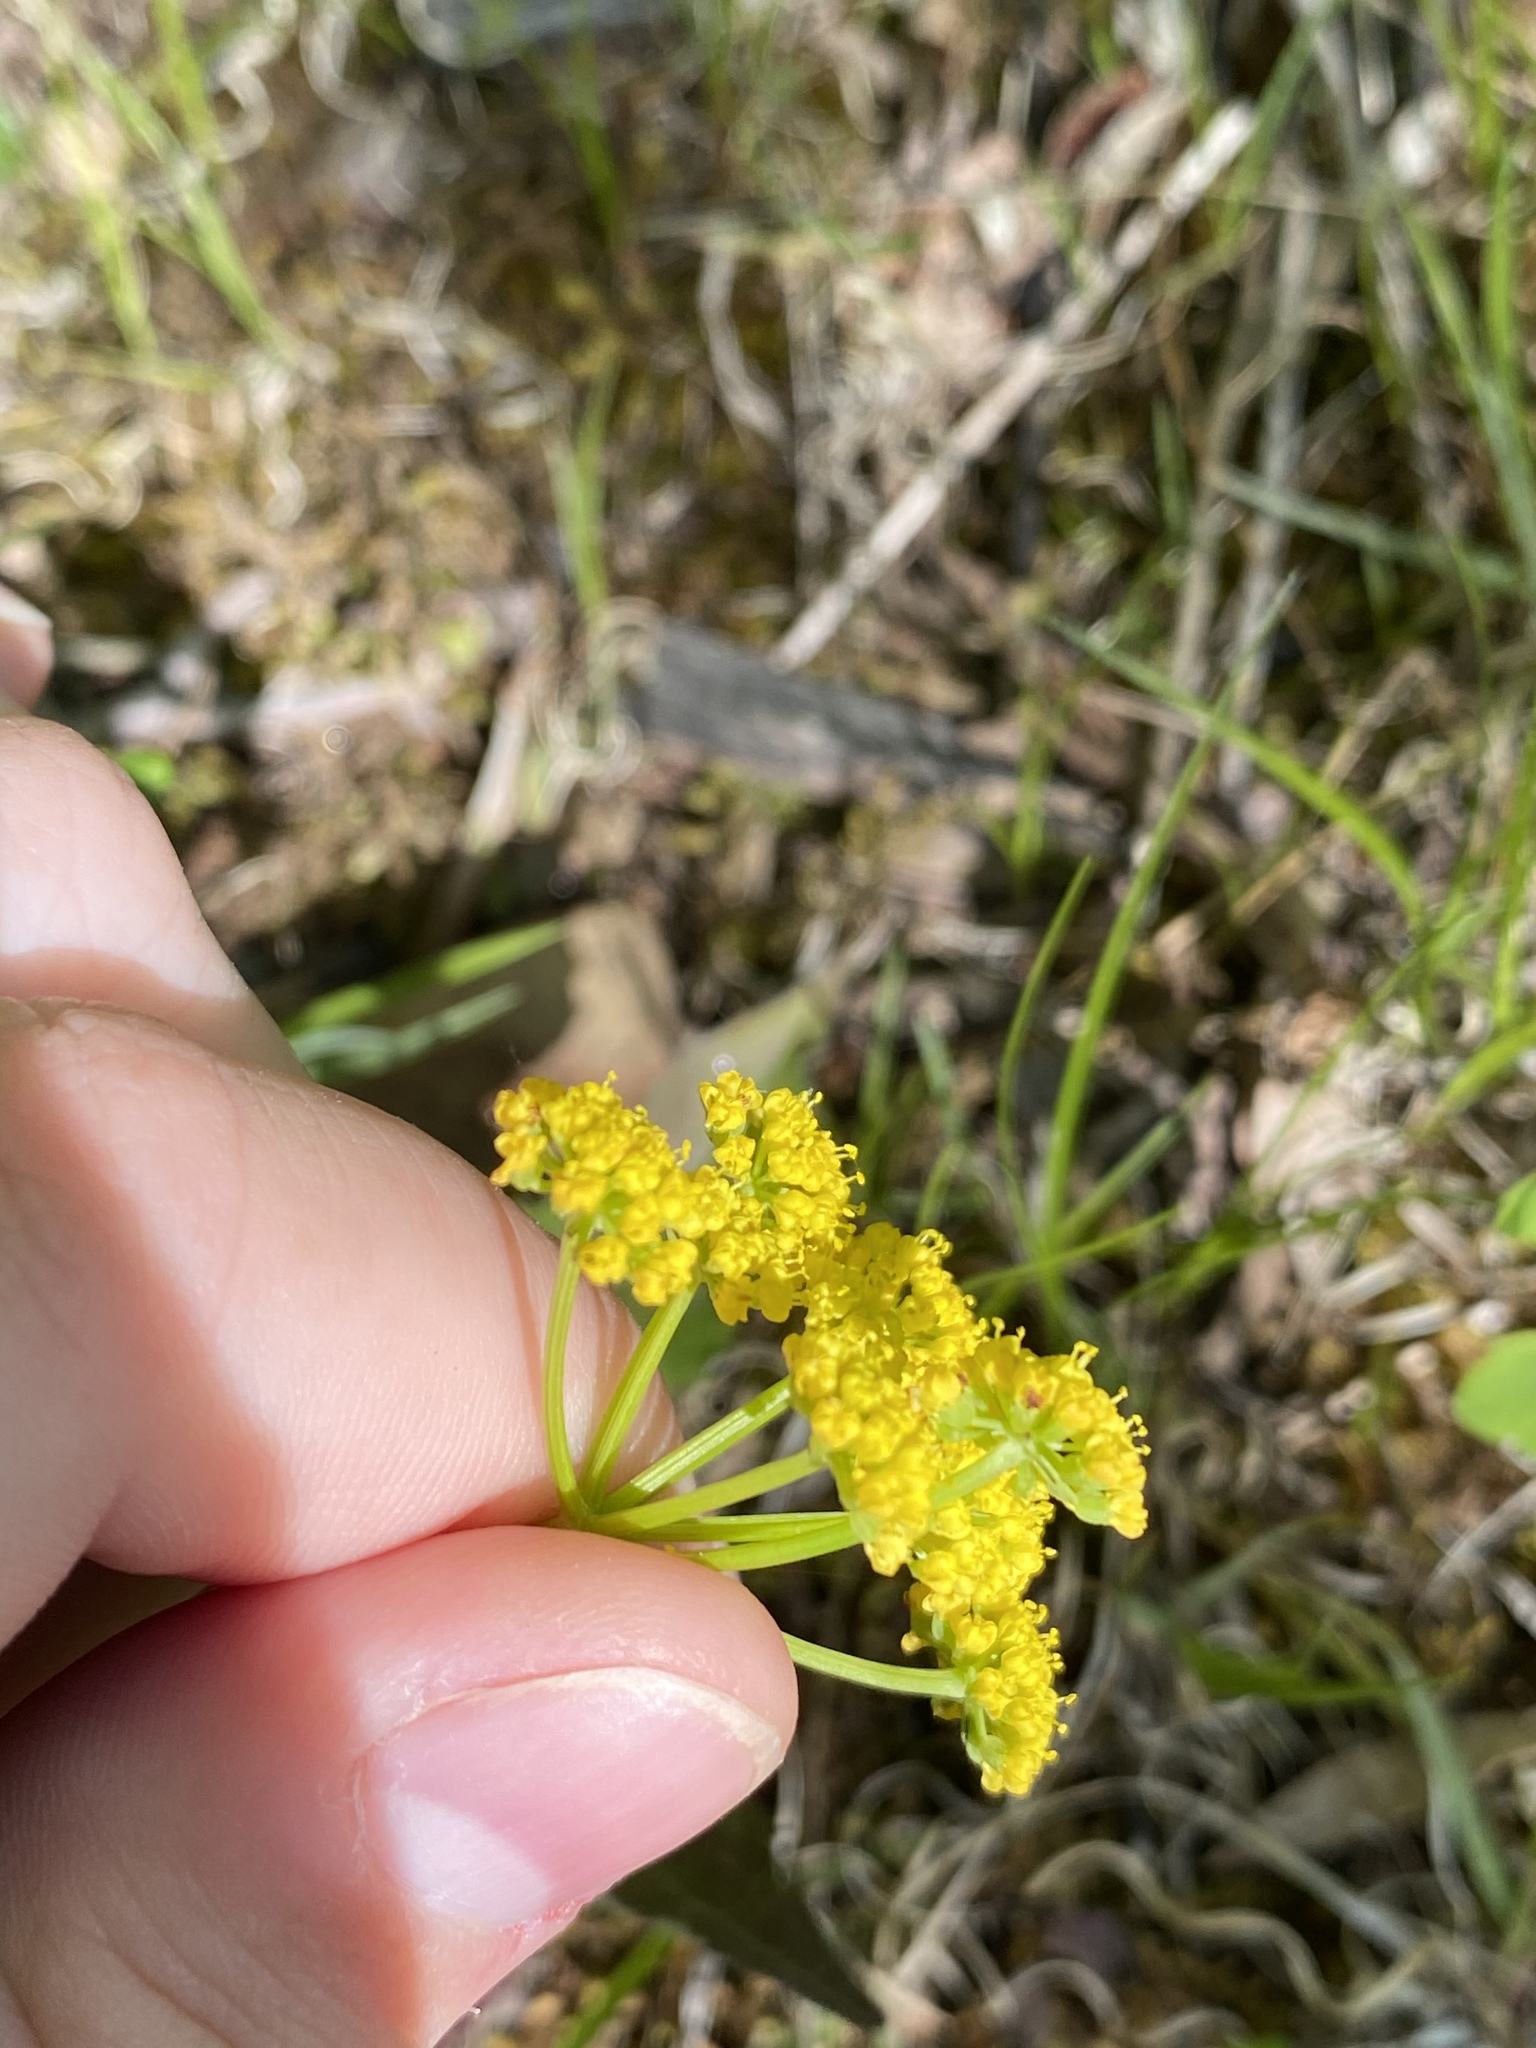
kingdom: Plantae
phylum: Tracheophyta
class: Magnoliopsida
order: Apiales
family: Apiaceae
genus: Zizia
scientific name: Zizia aptera
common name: Heart-leaved alexanders
